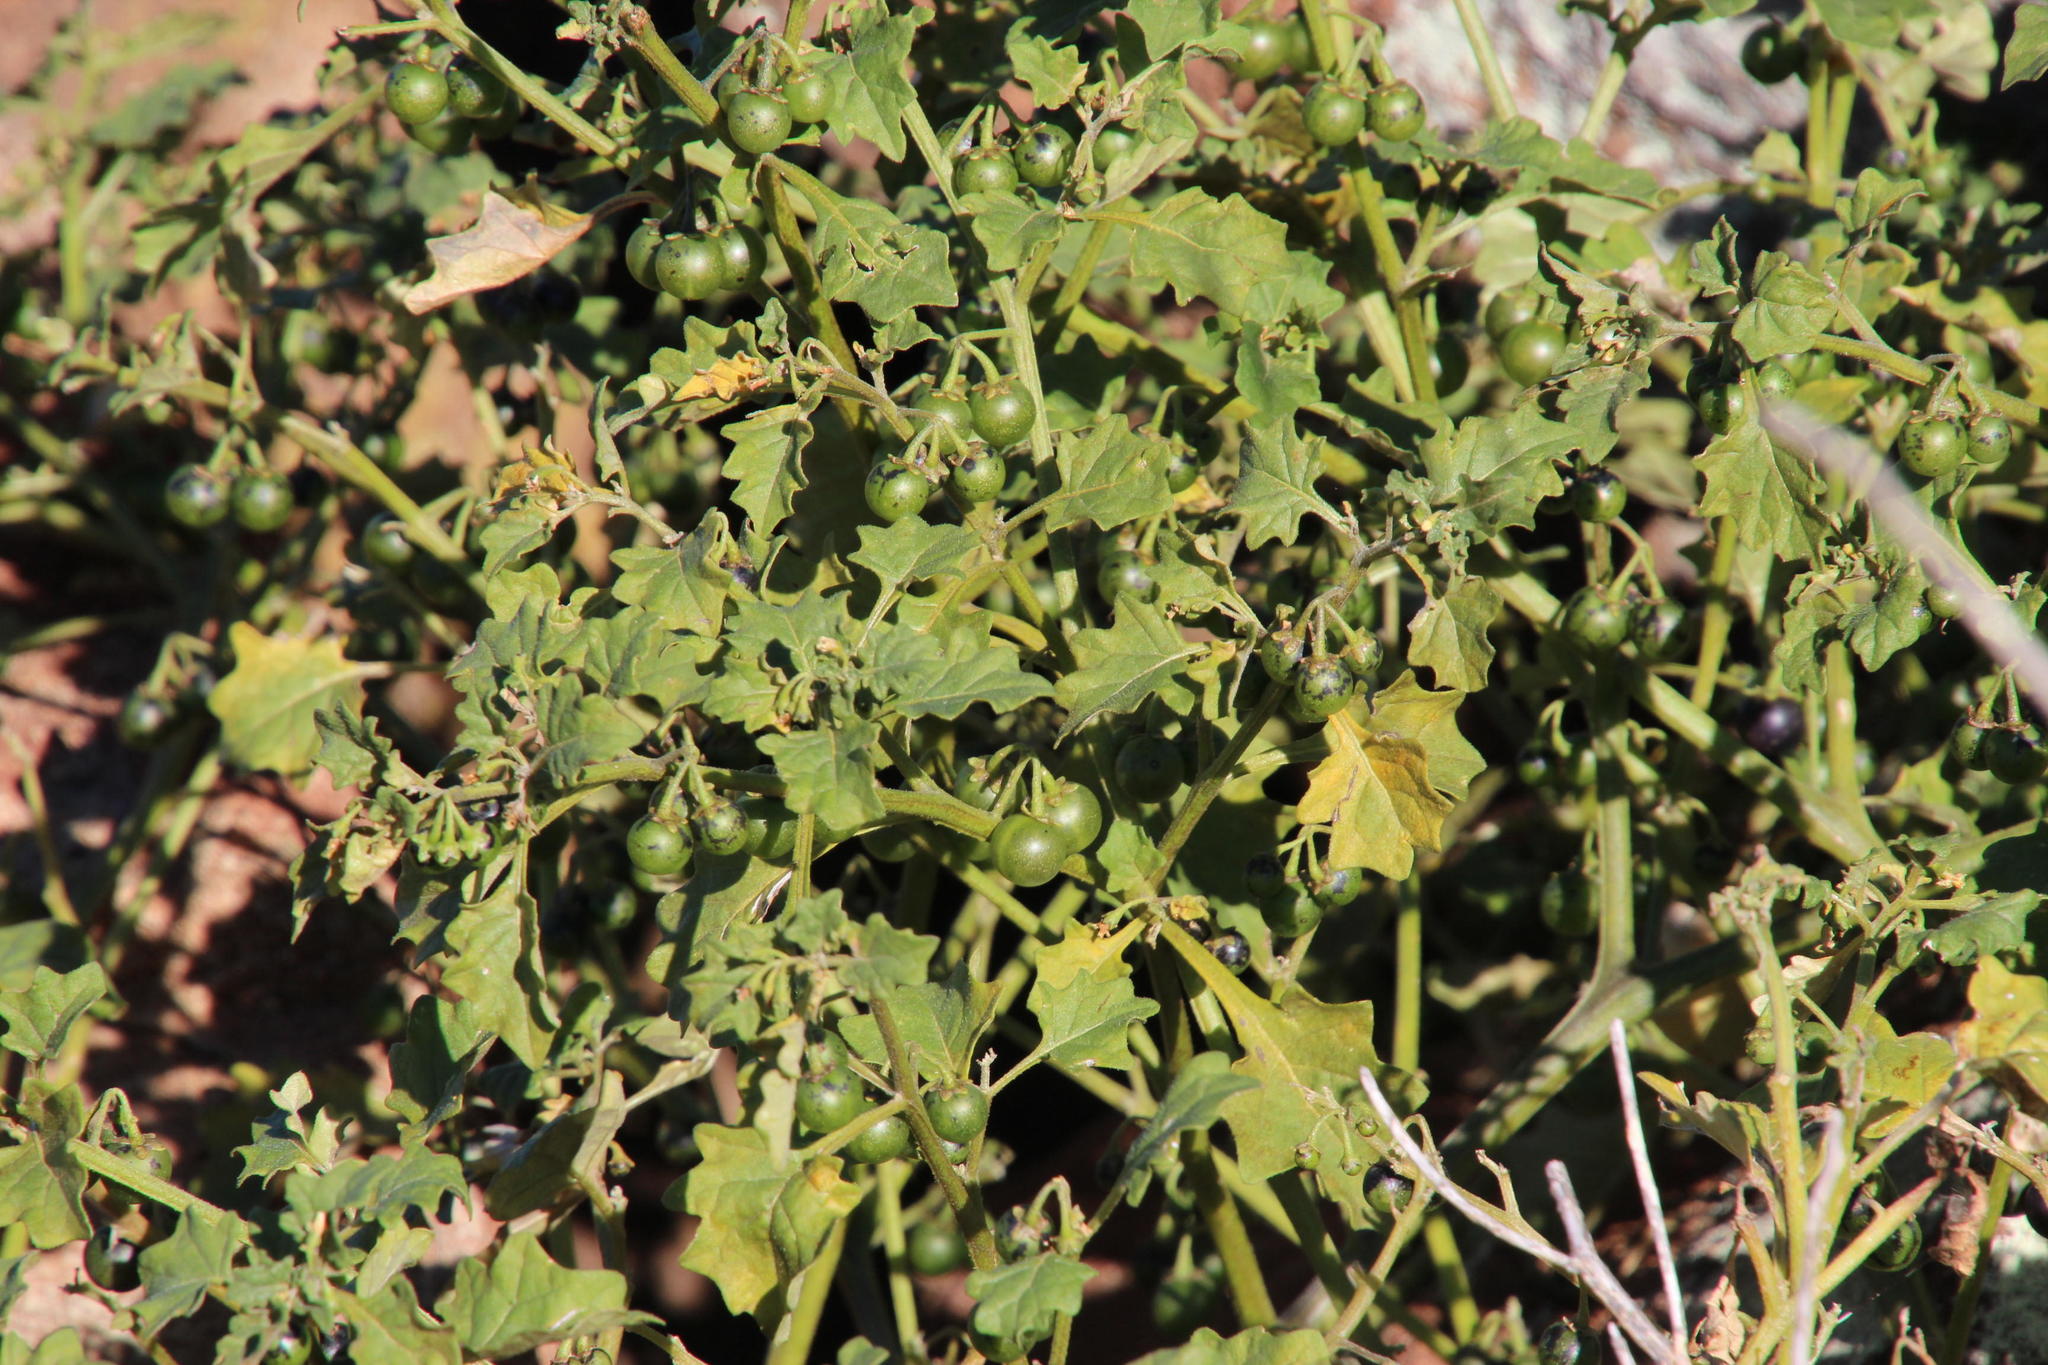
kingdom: Plantae
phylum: Tracheophyta
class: Magnoliopsida
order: Solanales
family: Solanaceae
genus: Solanum
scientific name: Solanum retroflexum
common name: Wonderberry
